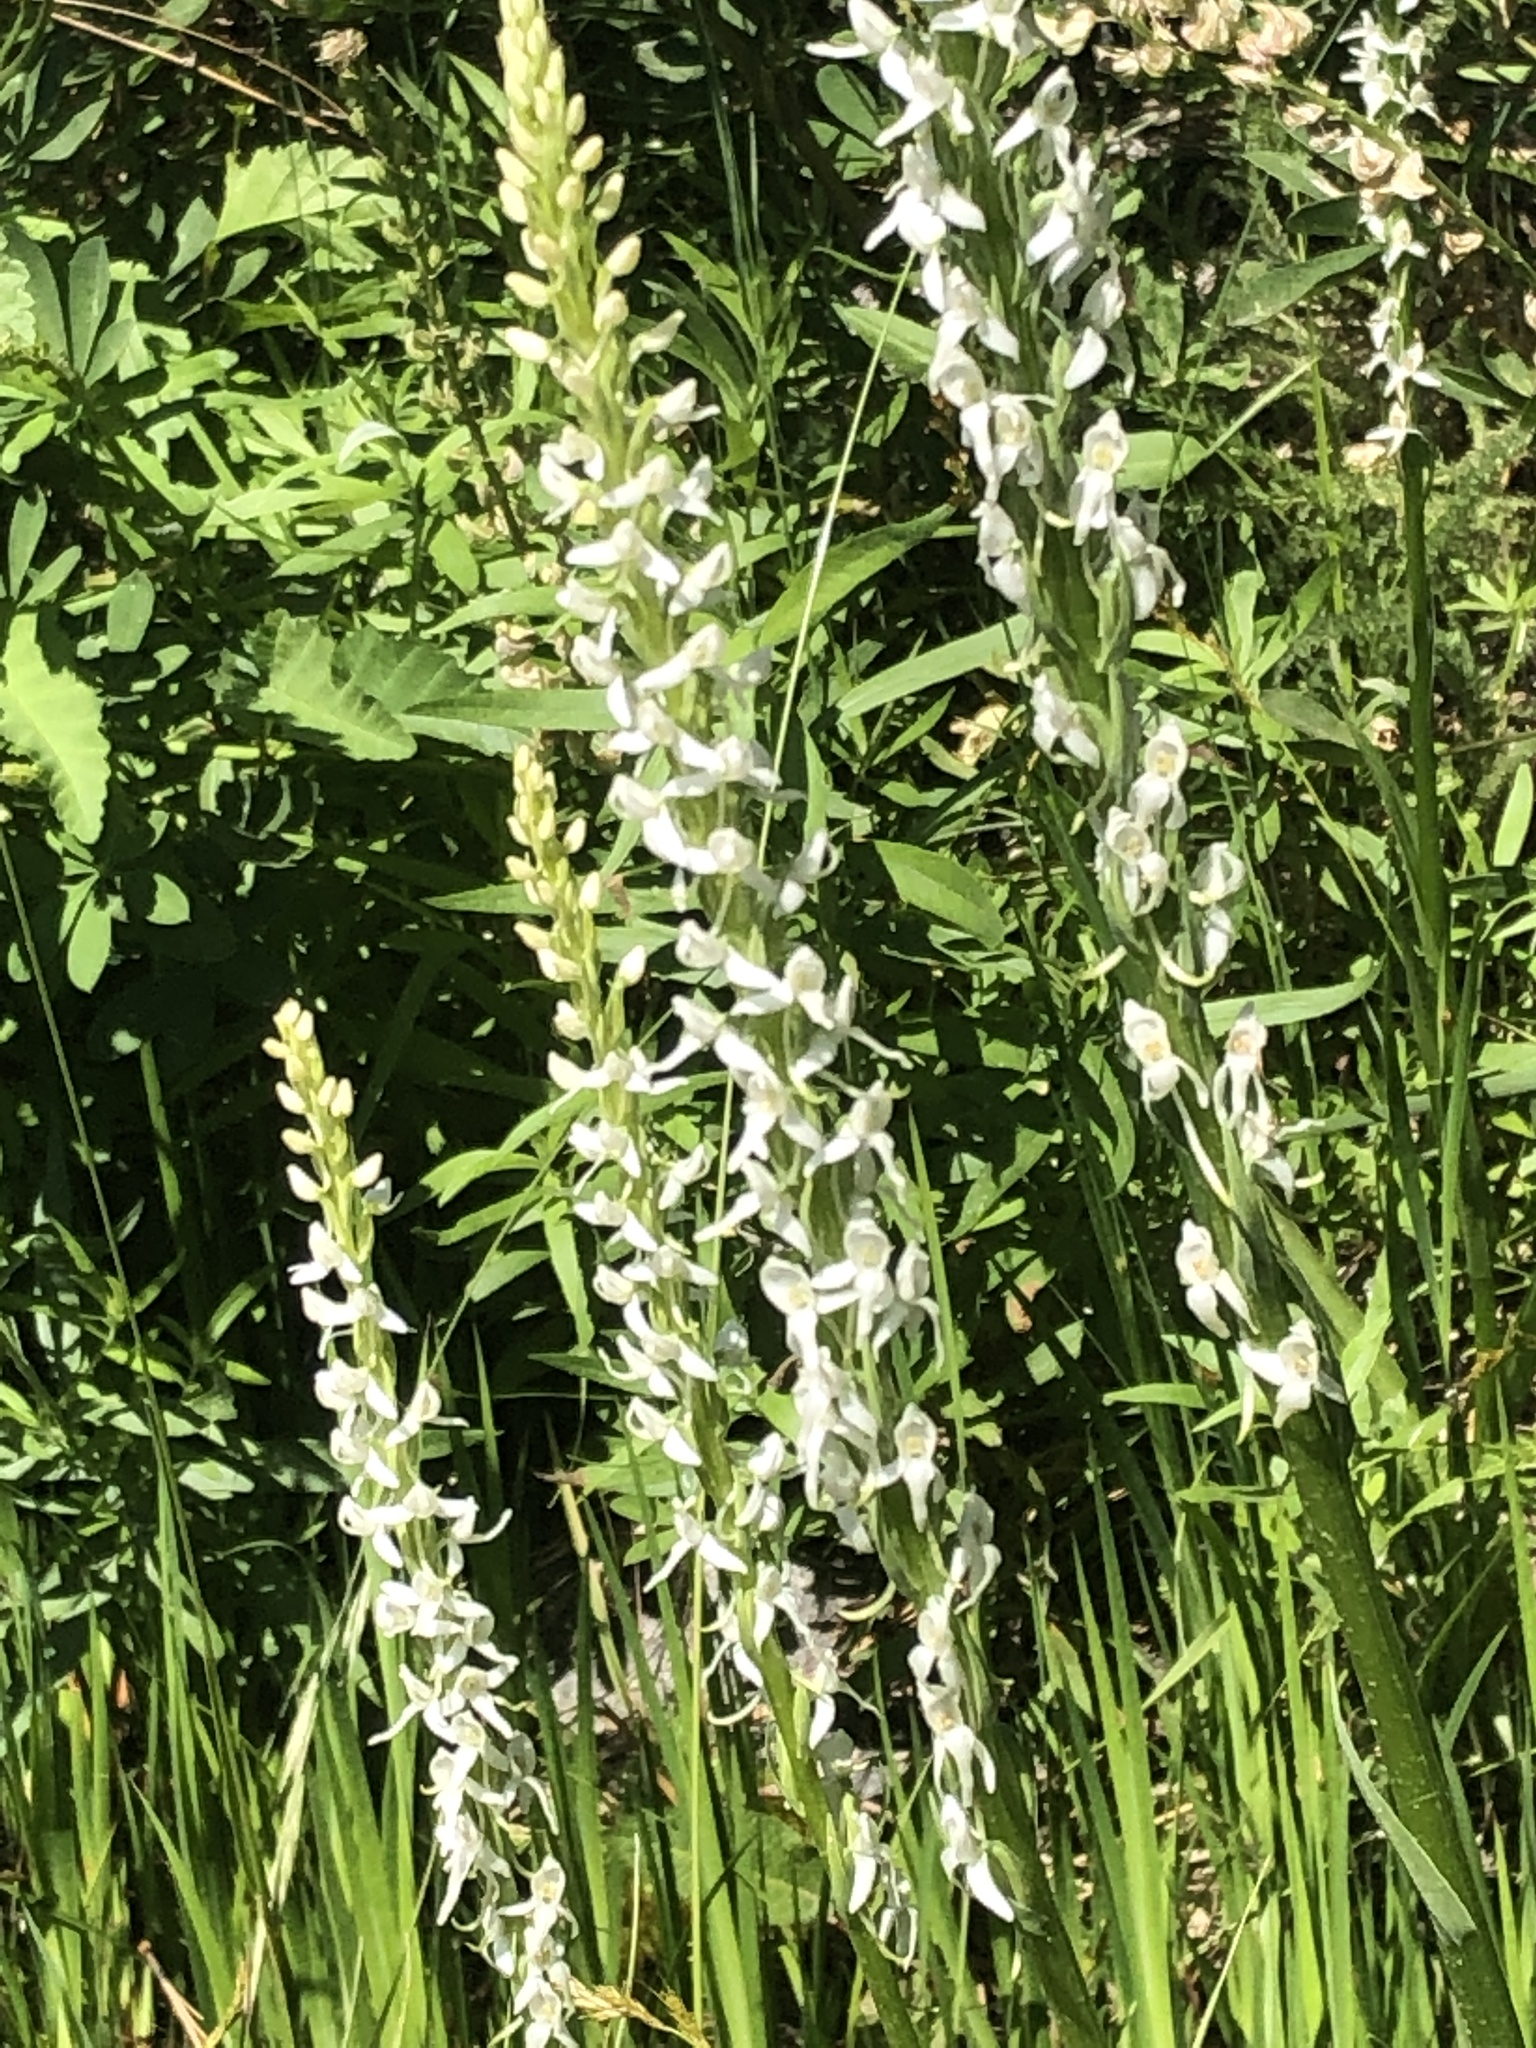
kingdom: Plantae
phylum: Tracheophyta
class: Liliopsida
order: Asparagales
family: Orchidaceae
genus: Platanthera
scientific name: Platanthera dilatata
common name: Bog candles
